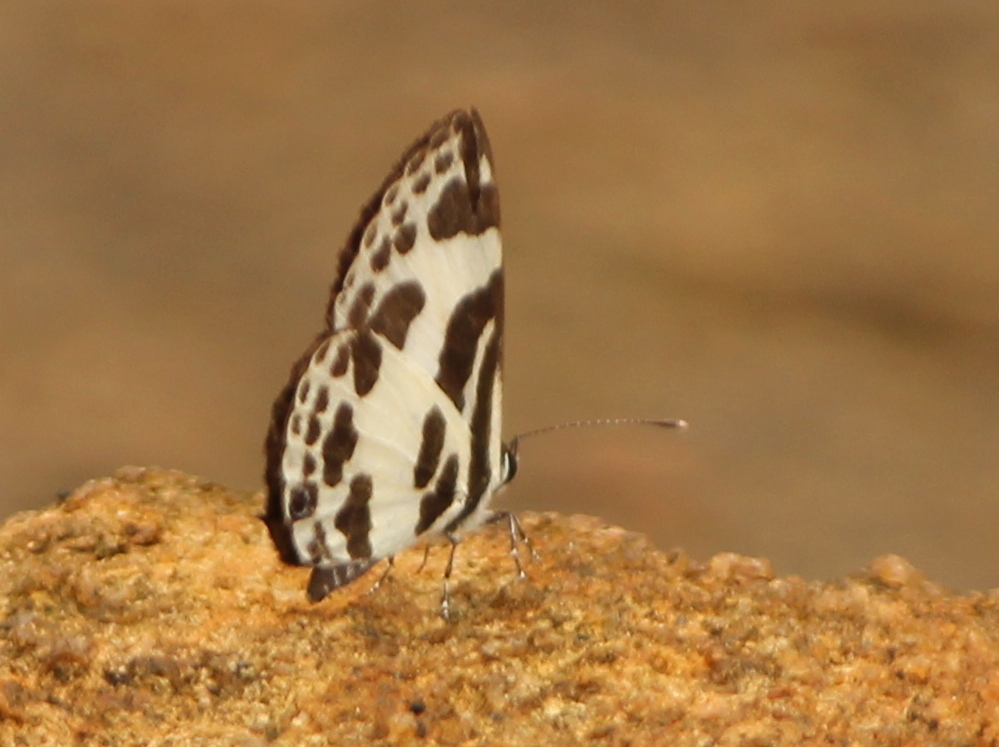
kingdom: Animalia
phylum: Arthropoda
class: Insecta
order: Lepidoptera
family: Lycaenidae
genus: Discolampa
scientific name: Discolampa ethion
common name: Banded blue pierrot
